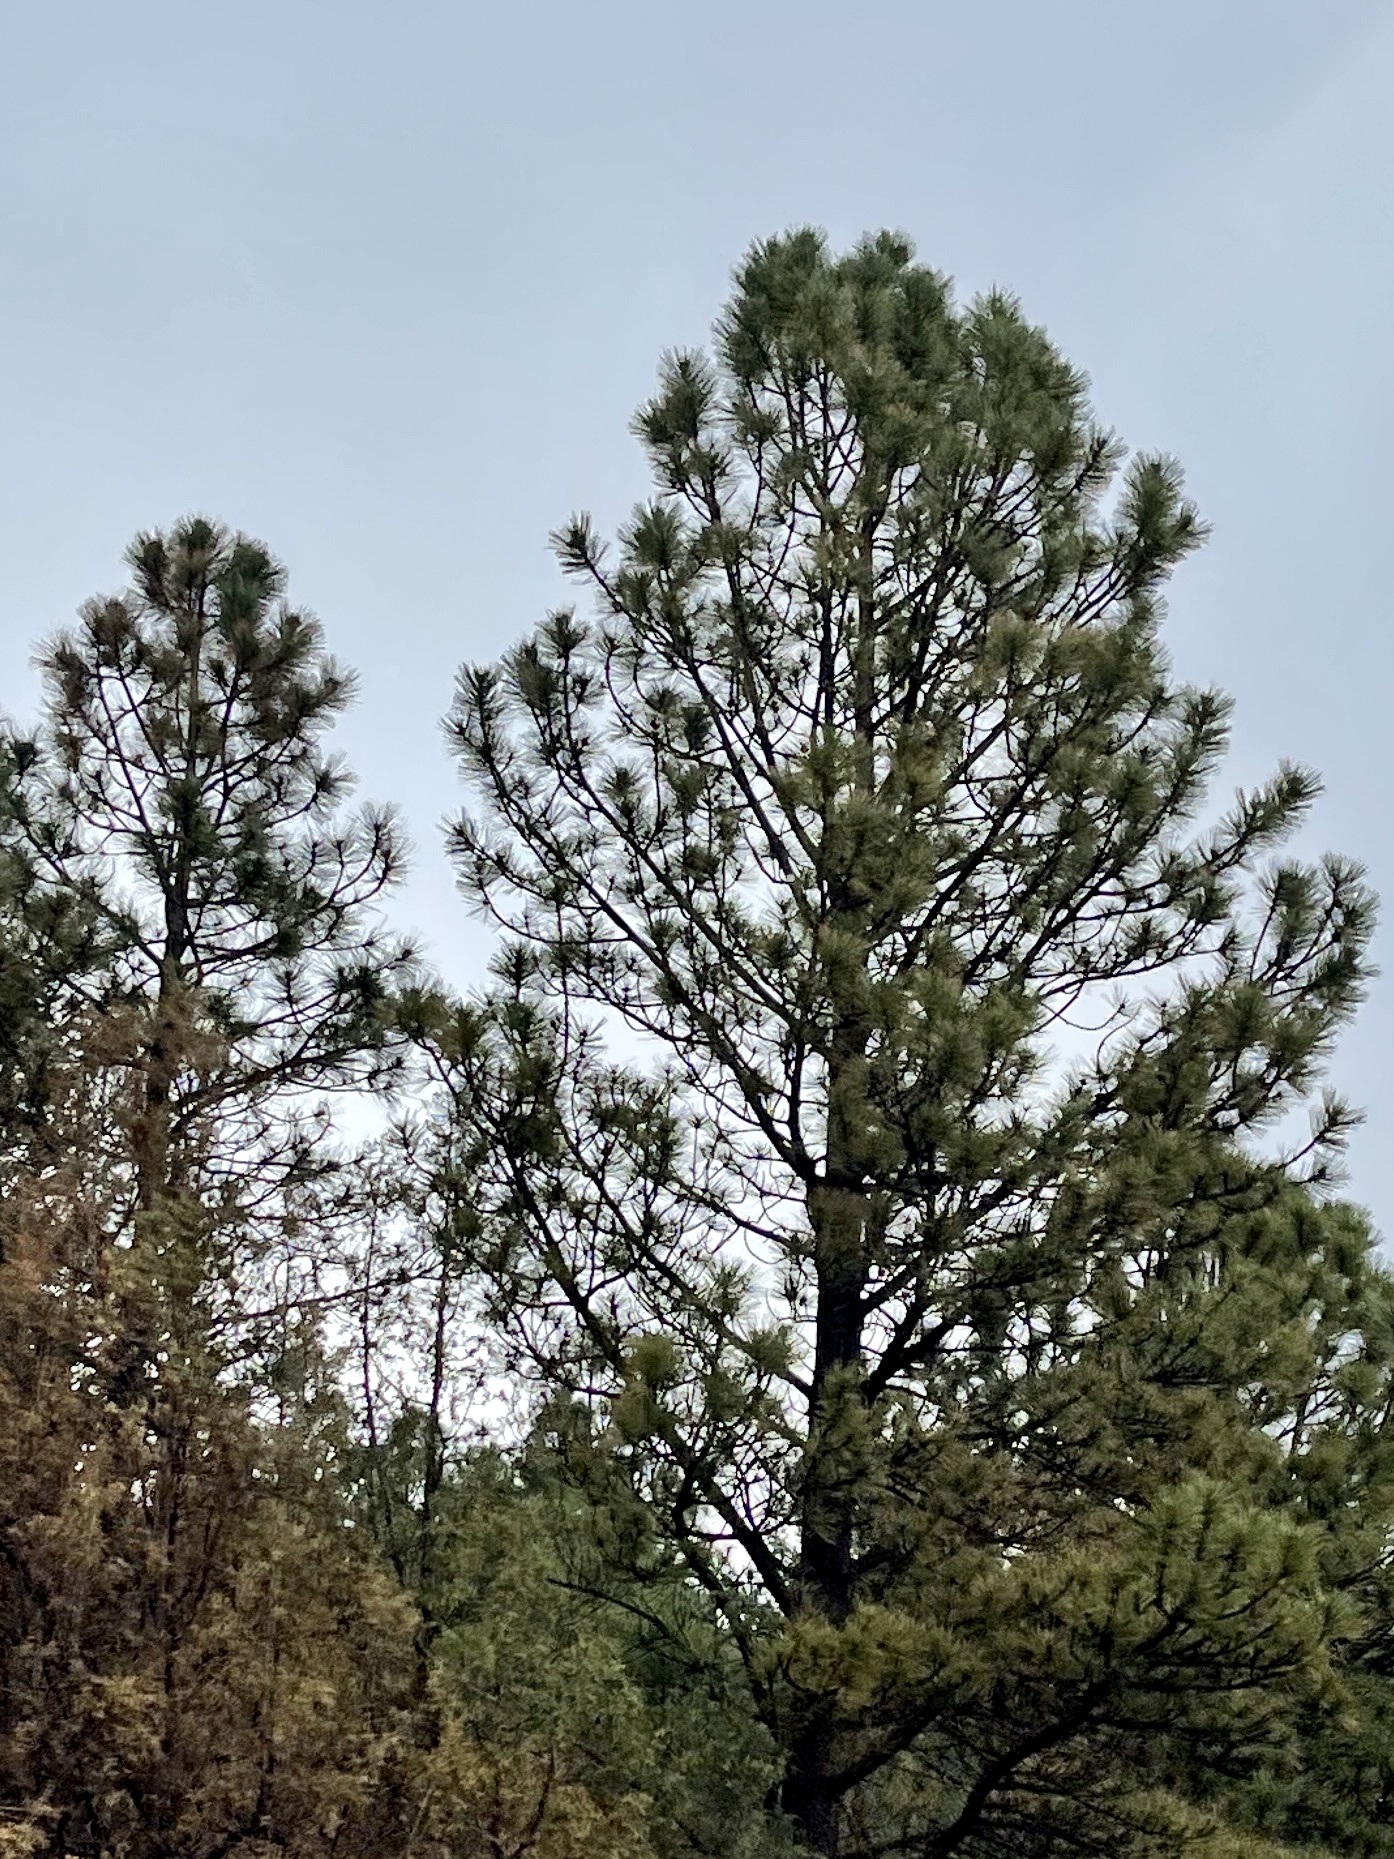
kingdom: Plantae
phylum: Tracheophyta
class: Pinopsida
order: Pinales
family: Pinaceae
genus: Pinus
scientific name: Pinus ponderosa
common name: Western yellow-pine
